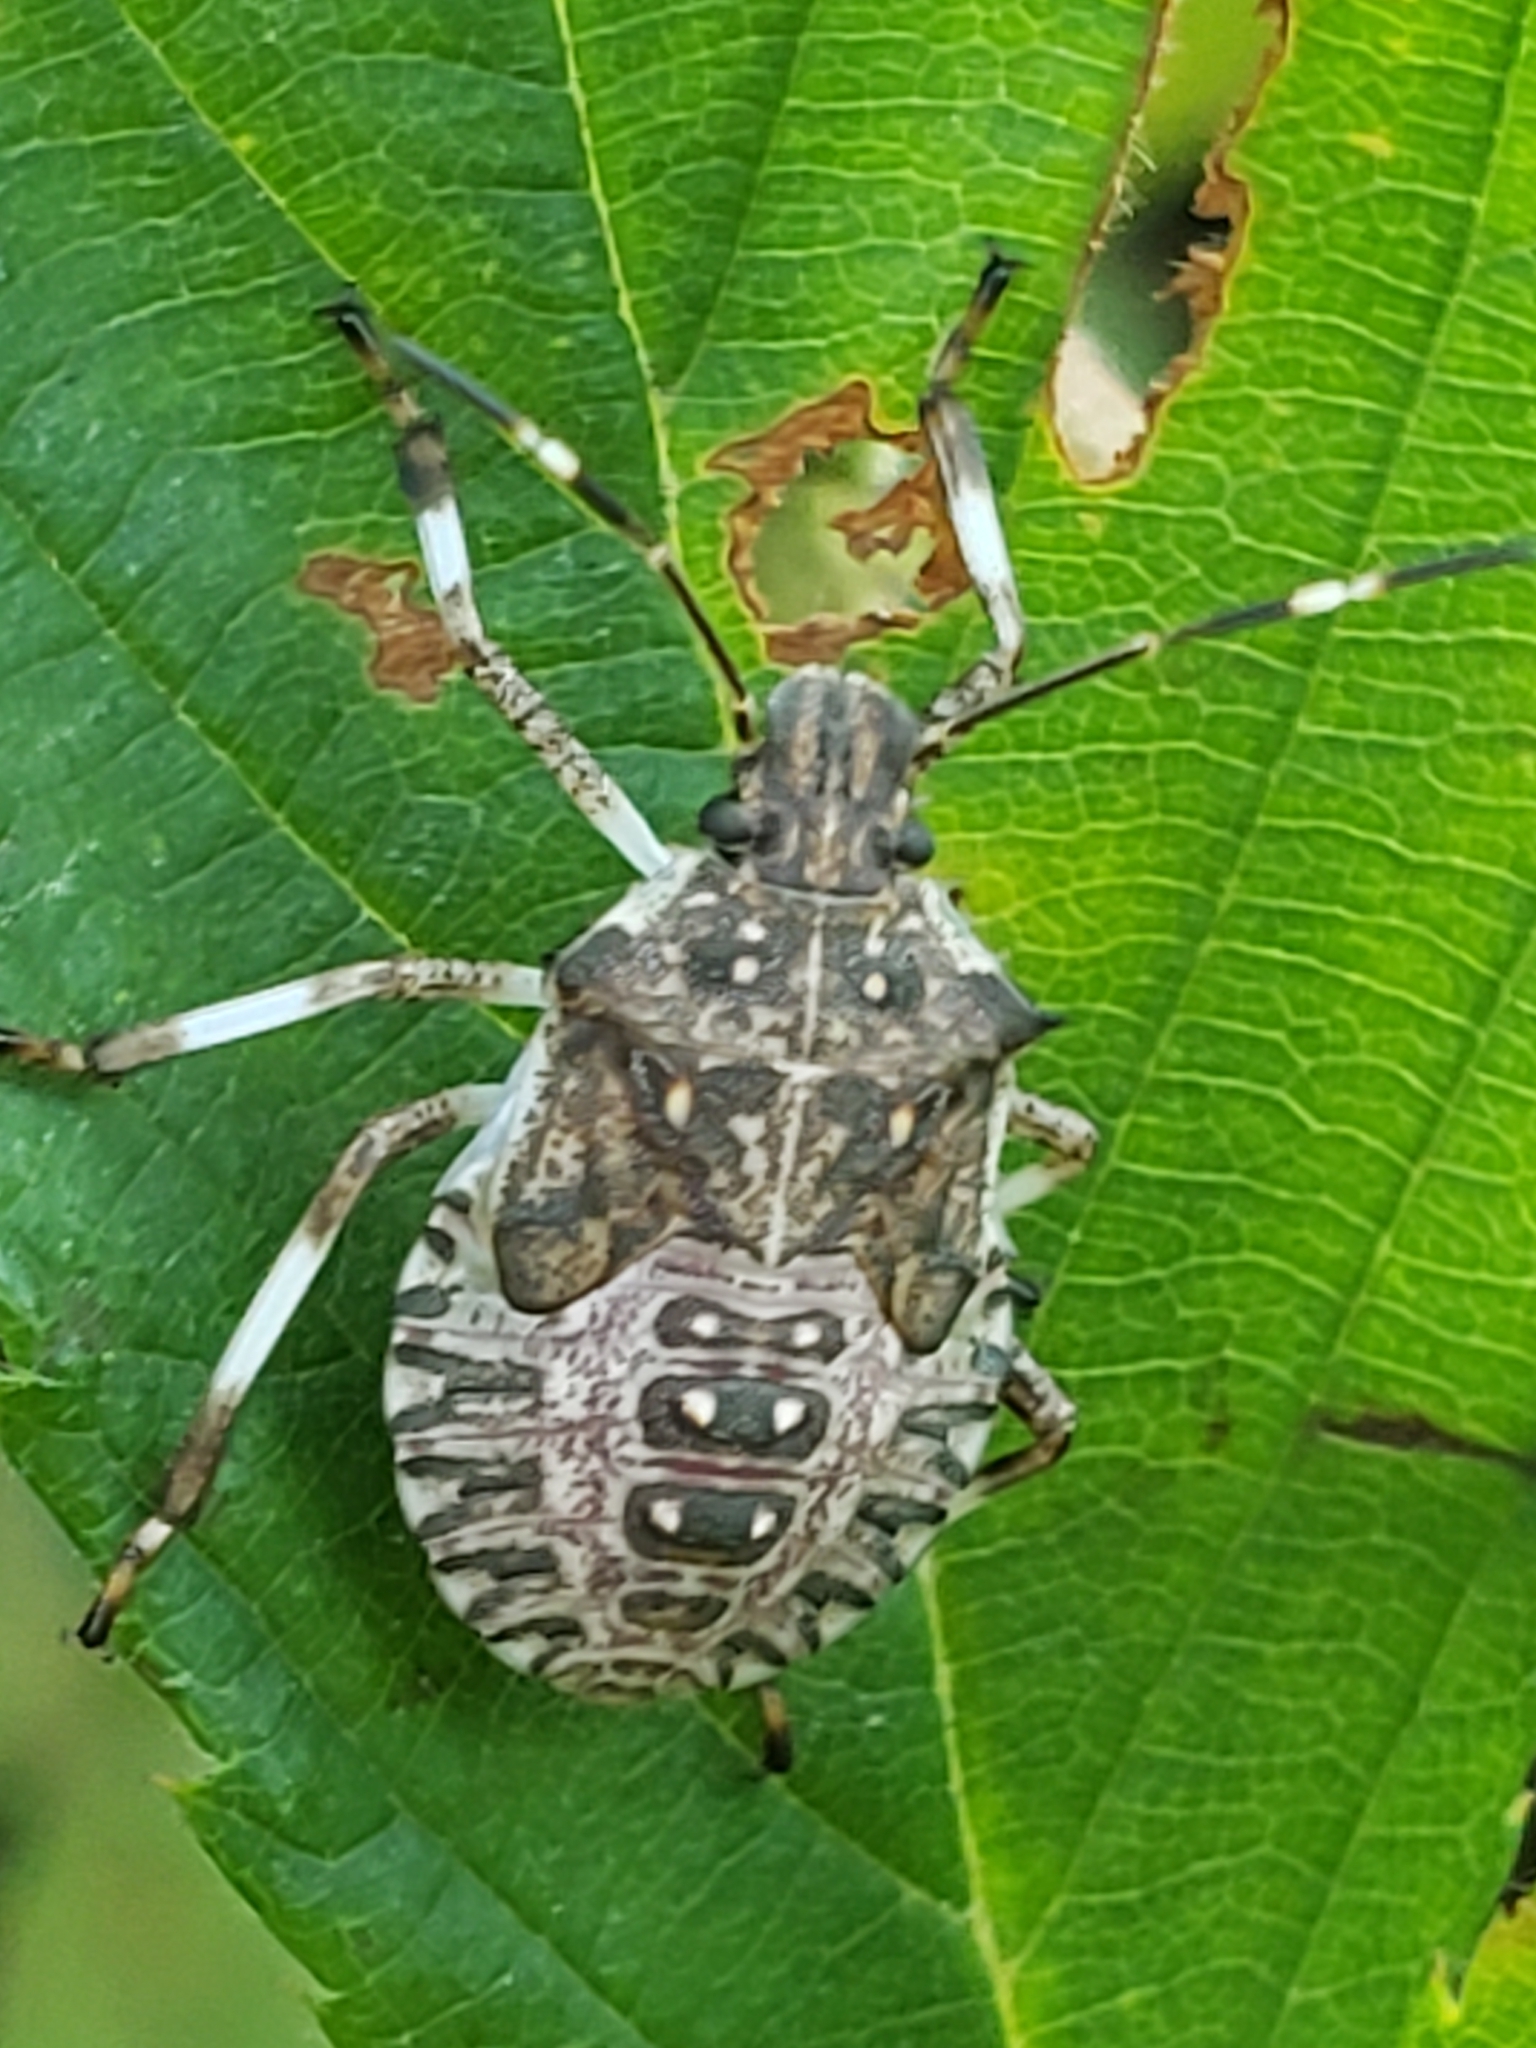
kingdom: Animalia
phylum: Arthropoda
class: Insecta
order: Hemiptera
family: Pentatomidae
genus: Halyomorpha
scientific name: Halyomorpha halys
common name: Brown marmorated stink bug
